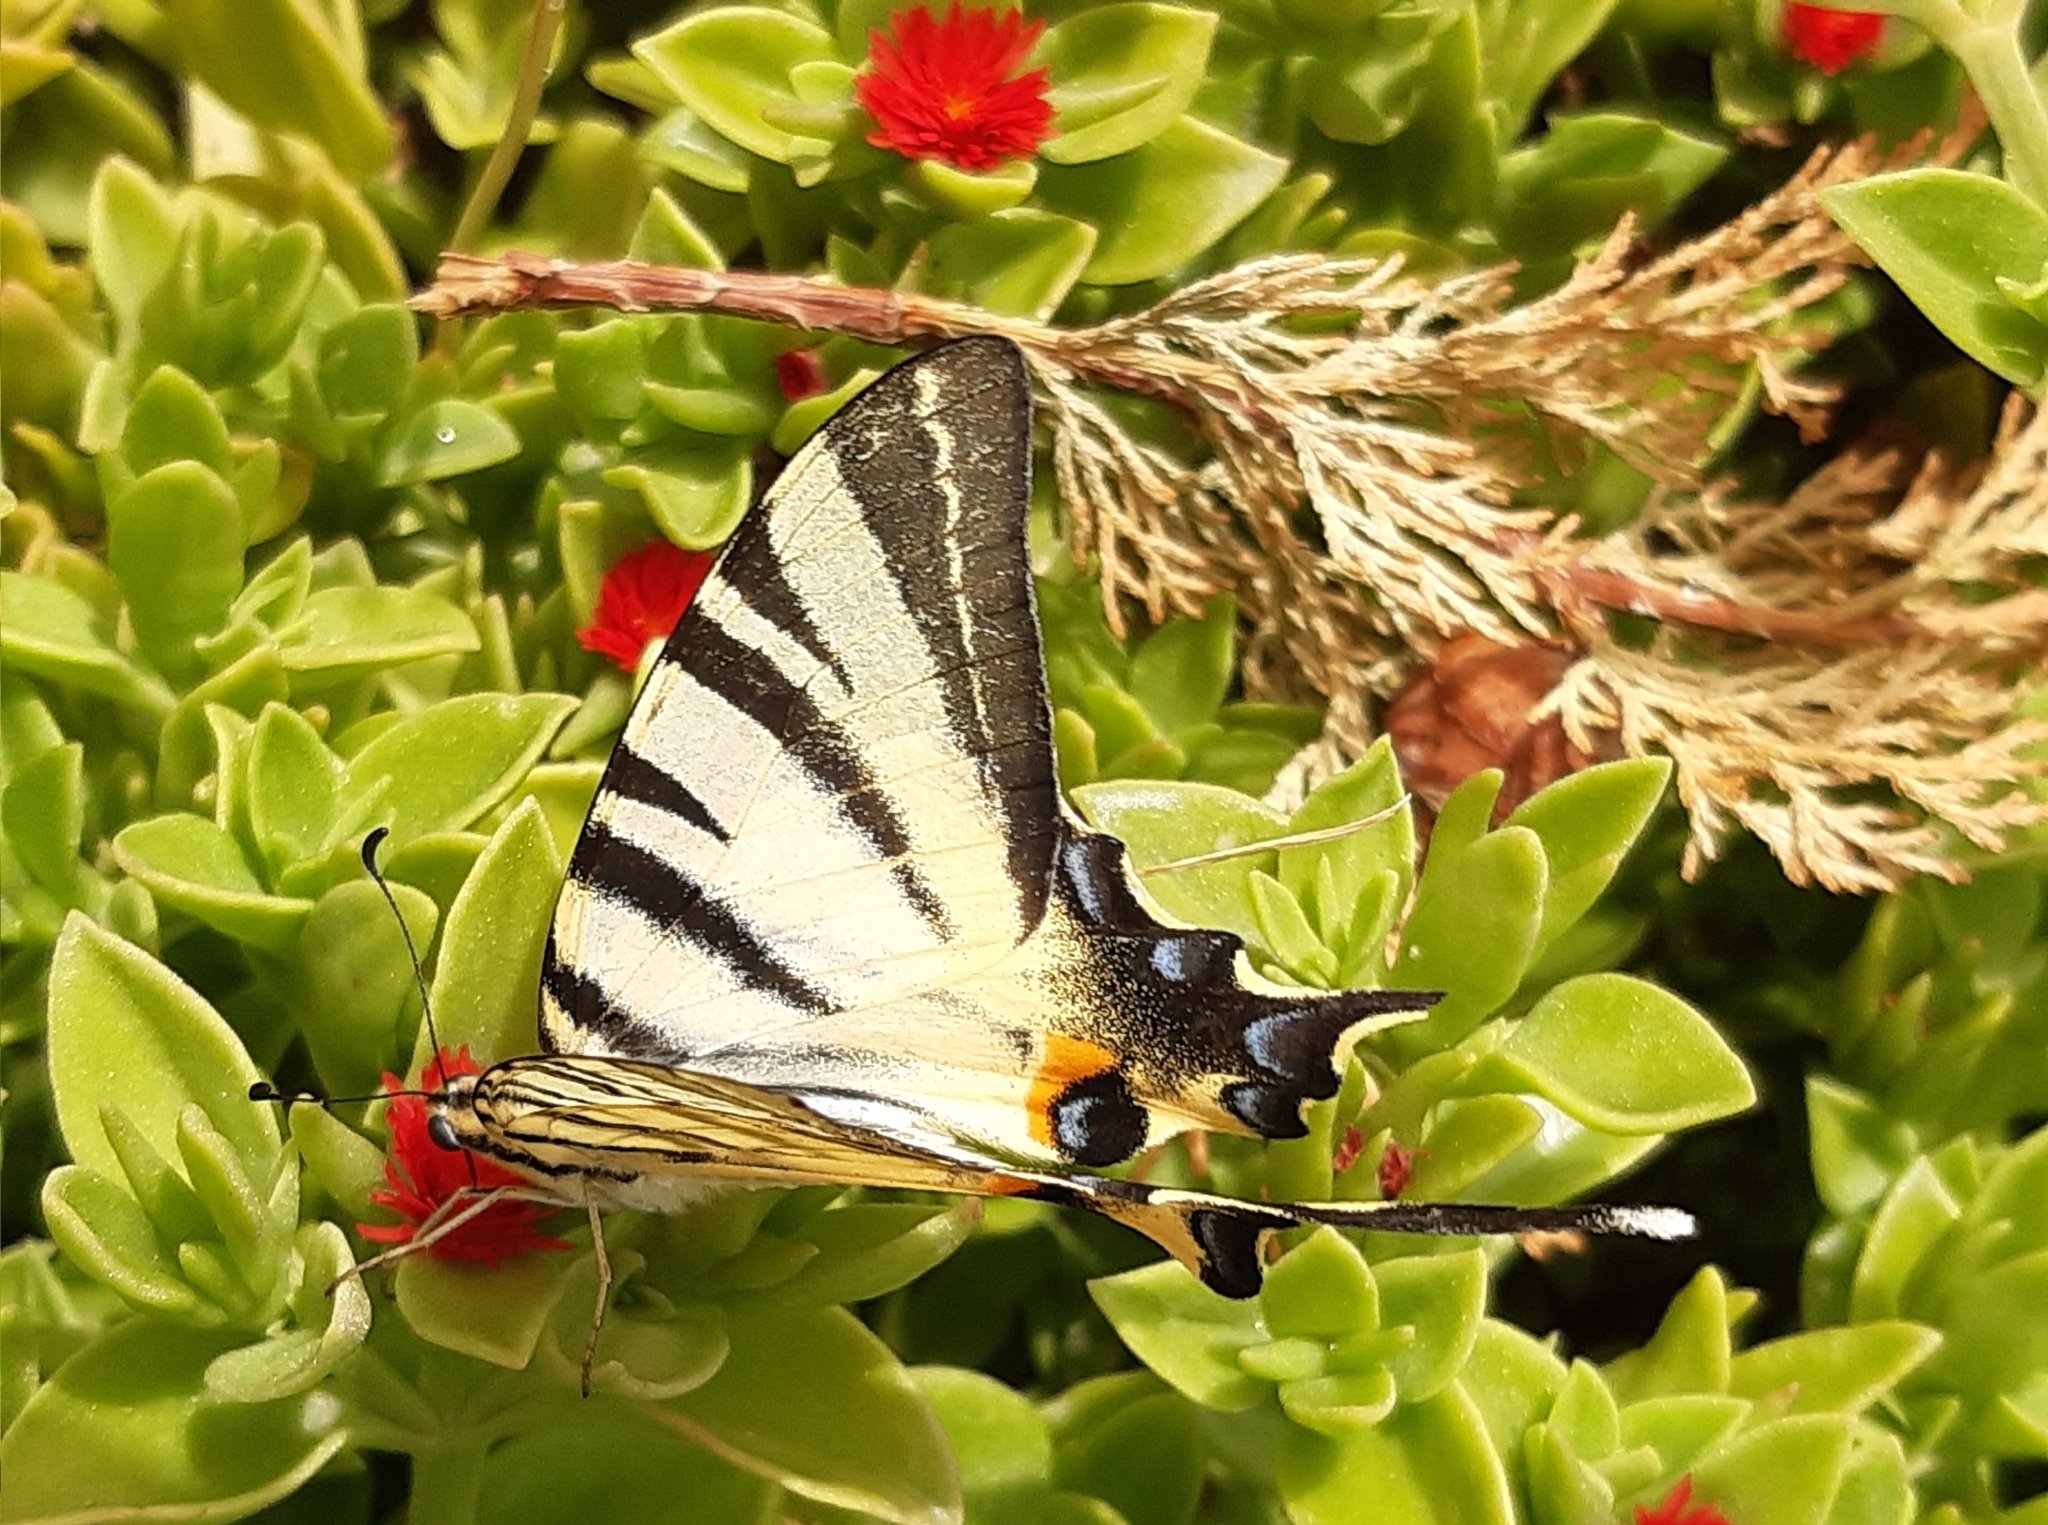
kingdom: Animalia
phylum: Arthropoda
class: Insecta
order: Lepidoptera
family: Papilionidae
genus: Iphiclides
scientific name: Iphiclides podalirius
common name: Scarce swallowtail
